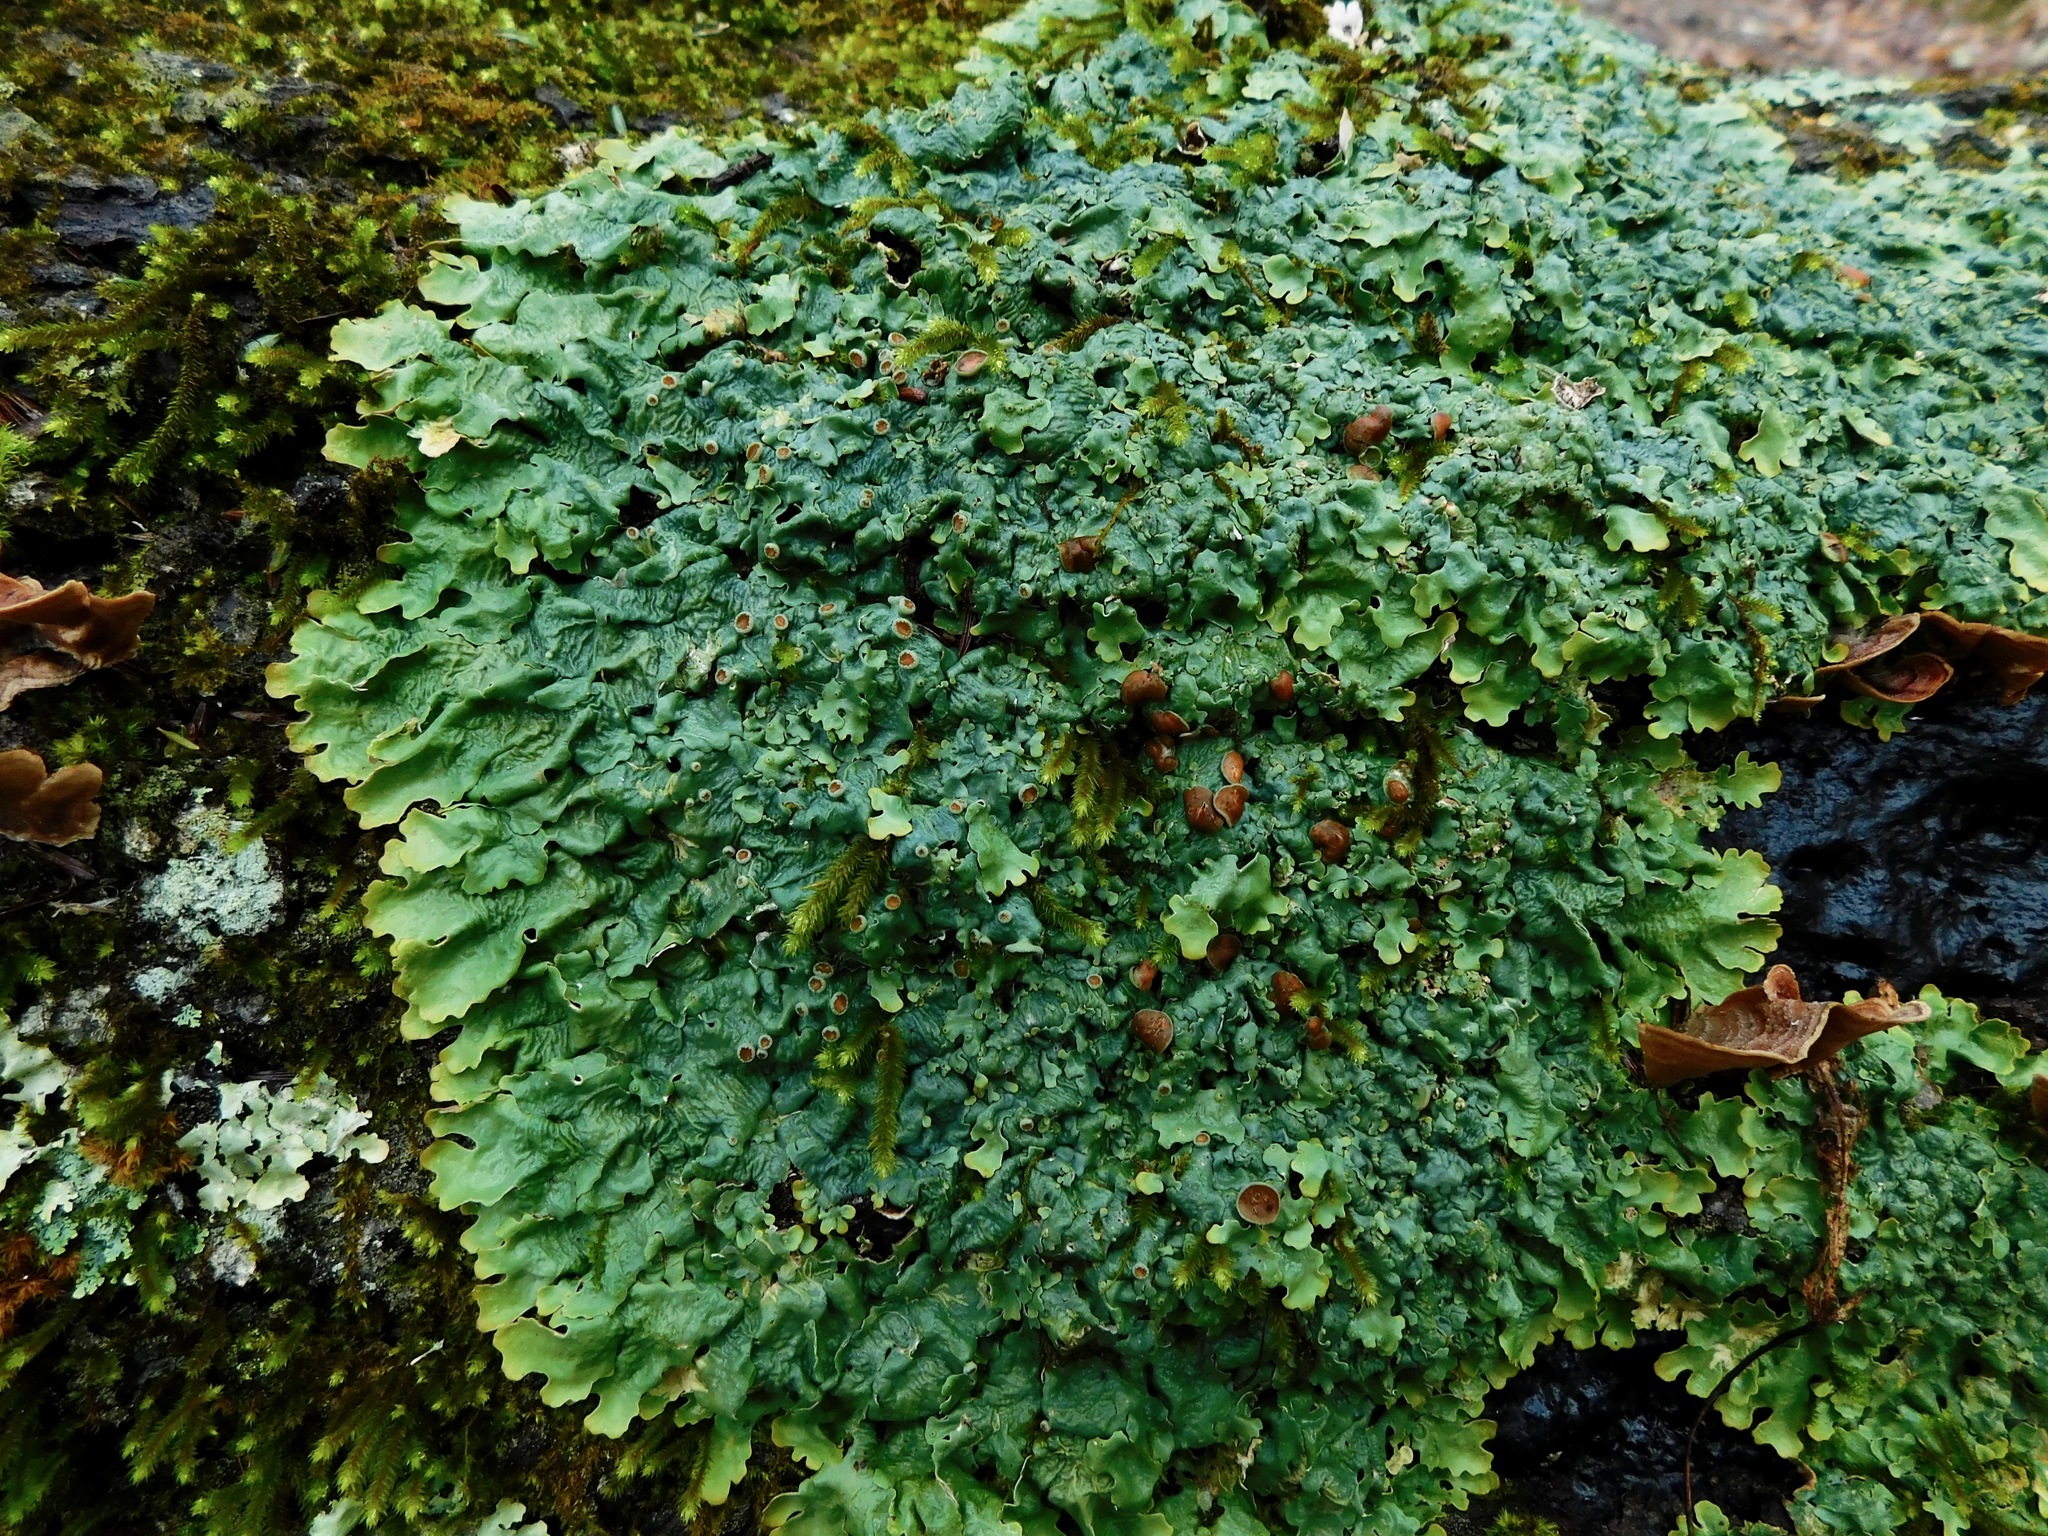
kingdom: Fungi
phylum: Ascomycota
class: Lecanoromycetes
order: Peltigerales
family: Lobariaceae
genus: Ricasolia
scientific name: Ricasolia quercizans
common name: Smooth lungwort
